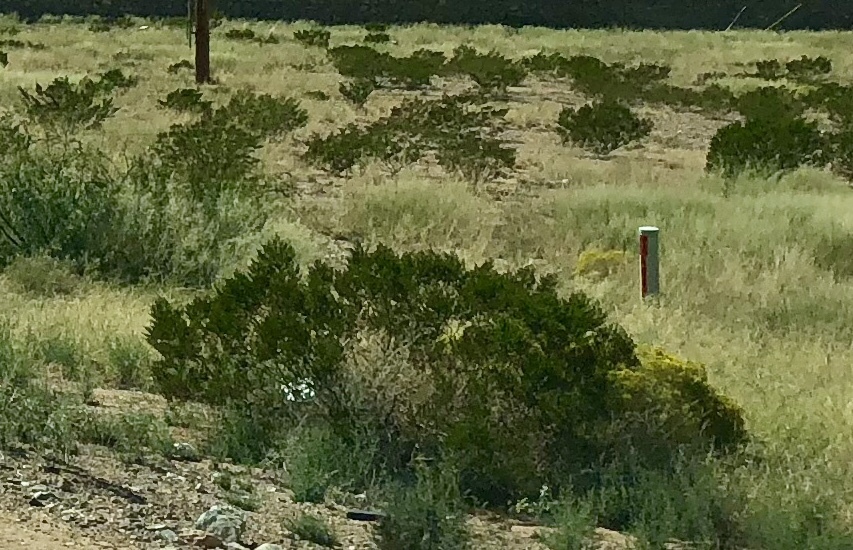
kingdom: Plantae
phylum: Tracheophyta
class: Magnoliopsida
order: Zygophyllales
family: Zygophyllaceae
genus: Larrea
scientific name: Larrea tridentata
